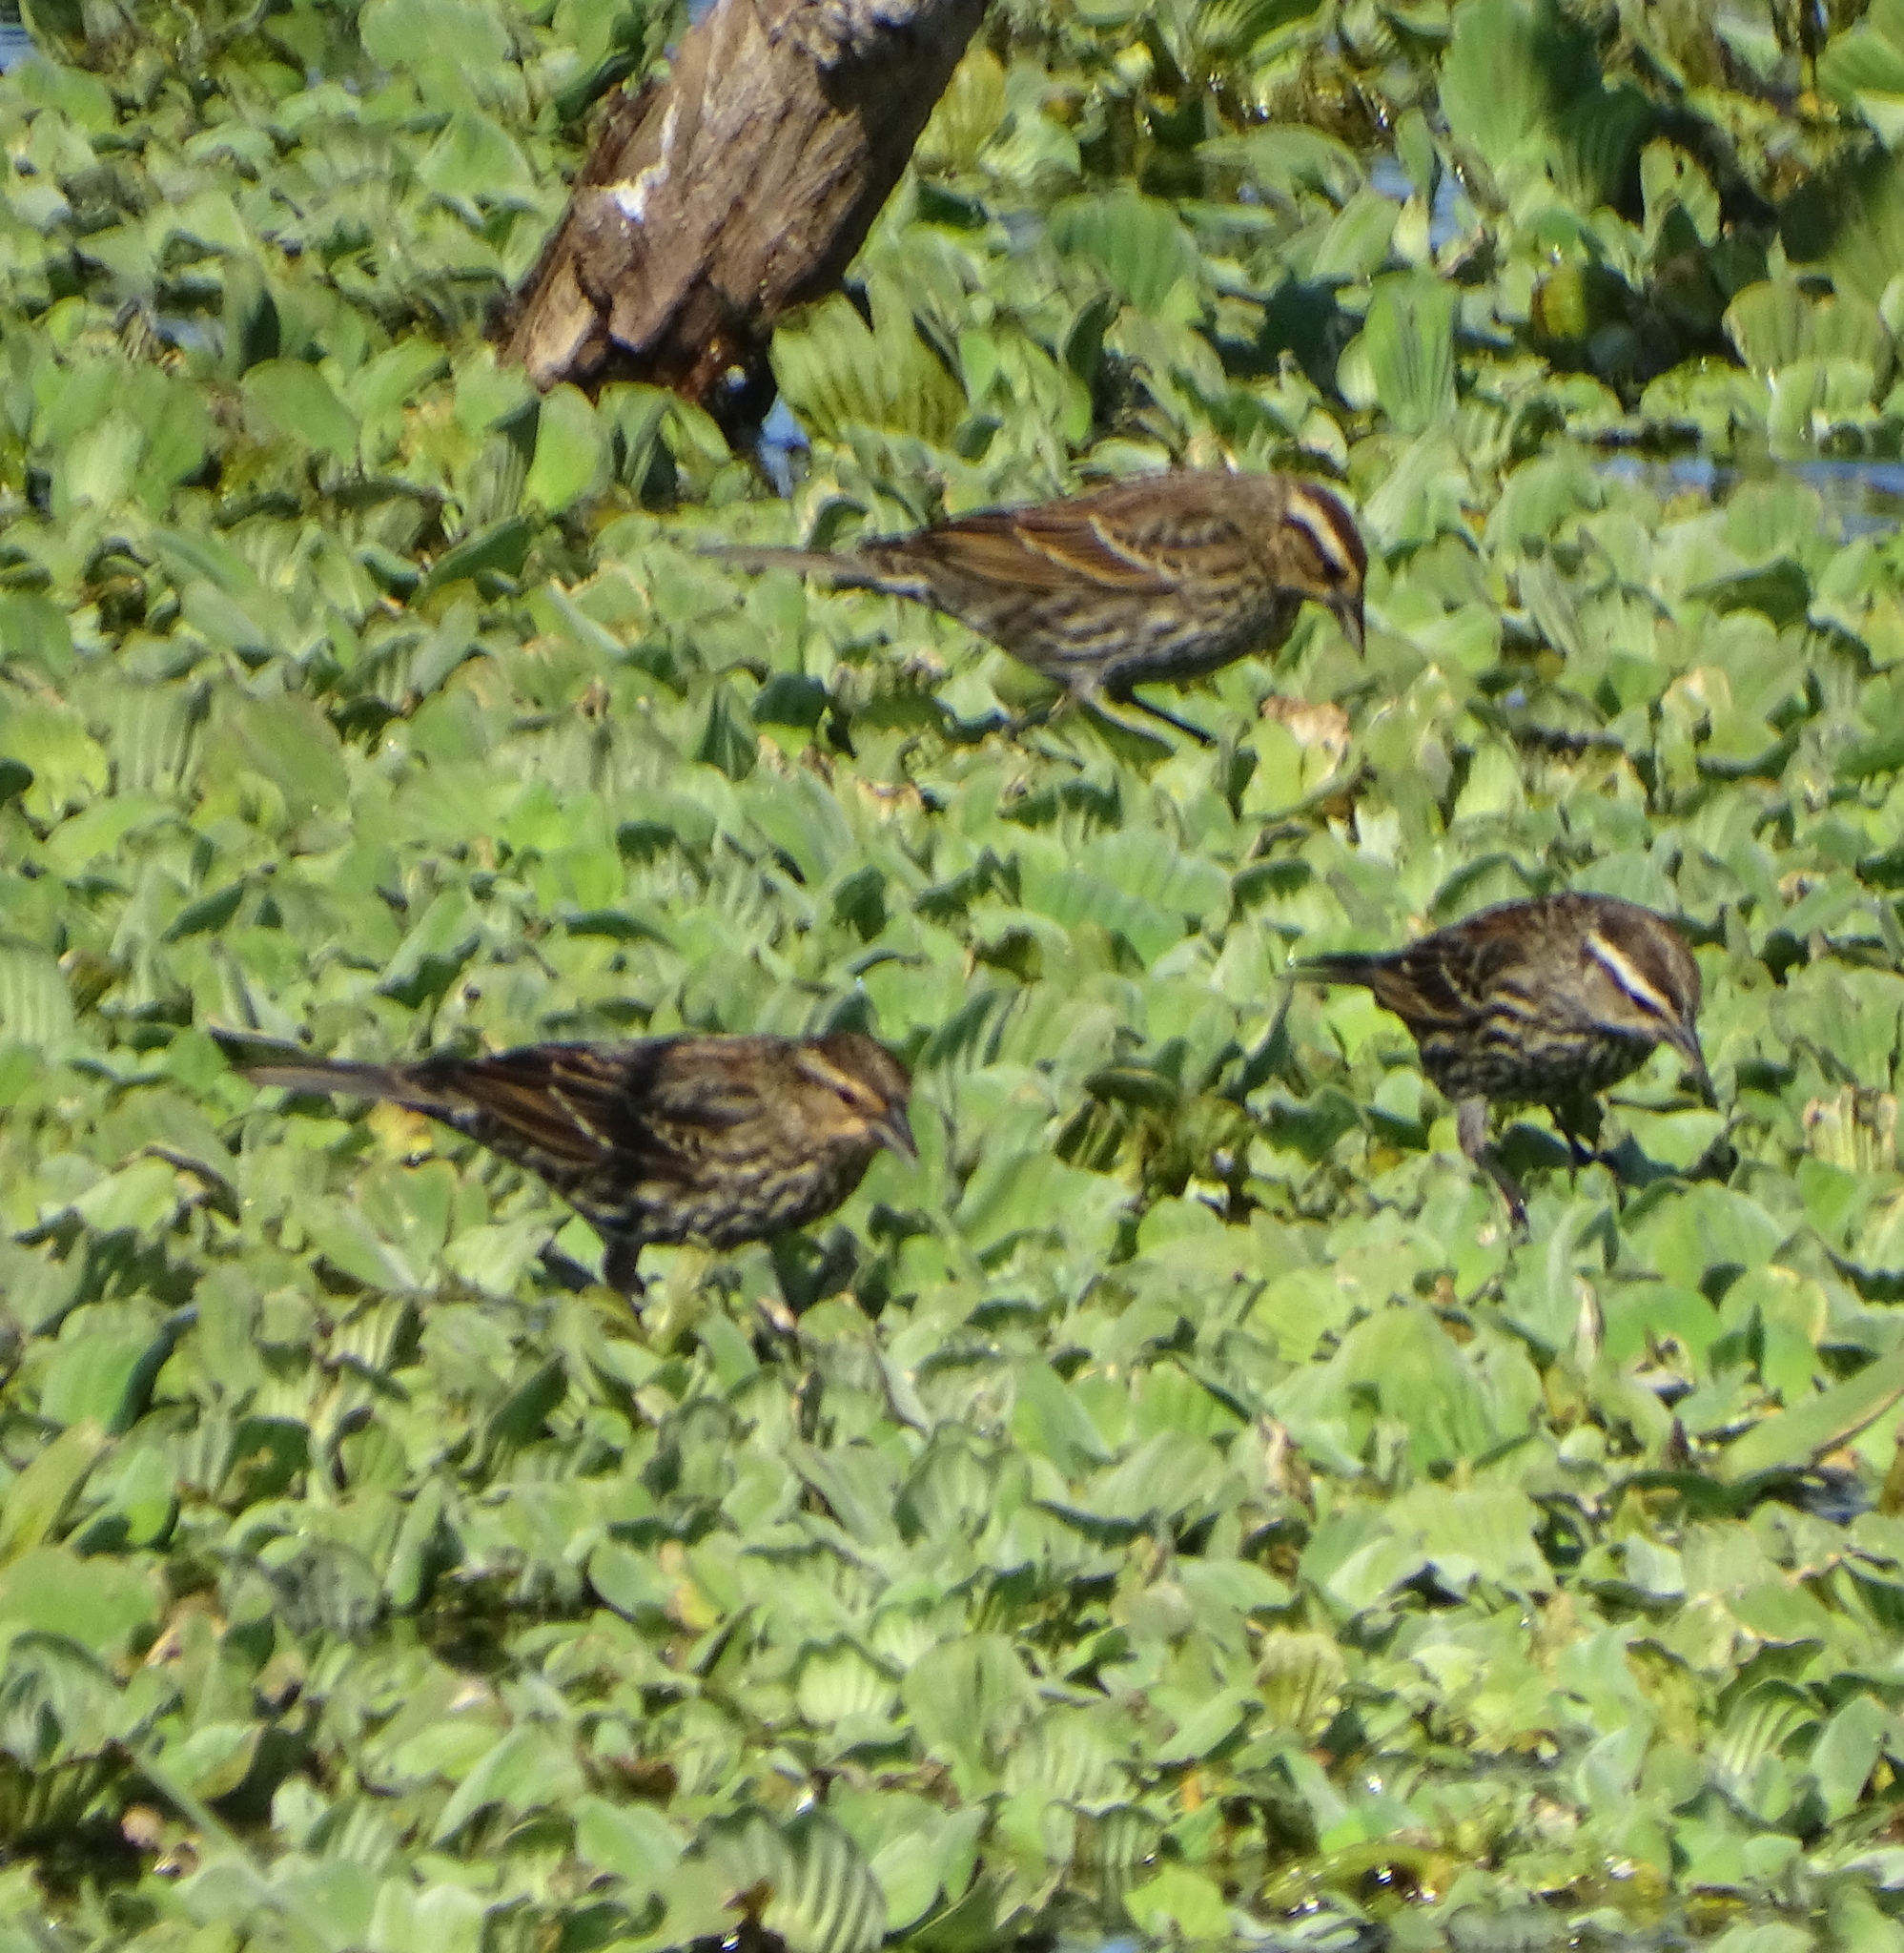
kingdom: Animalia
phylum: Chordata
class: Aves
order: Passeriformes
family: Icteridae
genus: Agelaius
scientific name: Agelaius phoeniceus
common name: Red-winged blackbird
